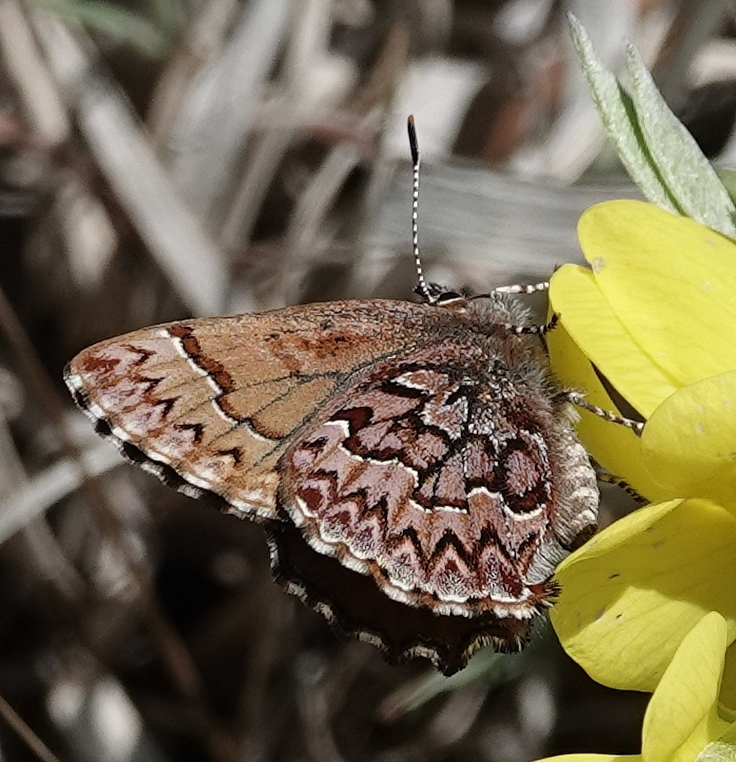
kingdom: Animalia
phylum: Arthropoda
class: Insecta
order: Lepidoptera
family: Lycaenidae
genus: Incisalia
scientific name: Incisalia eryphon
